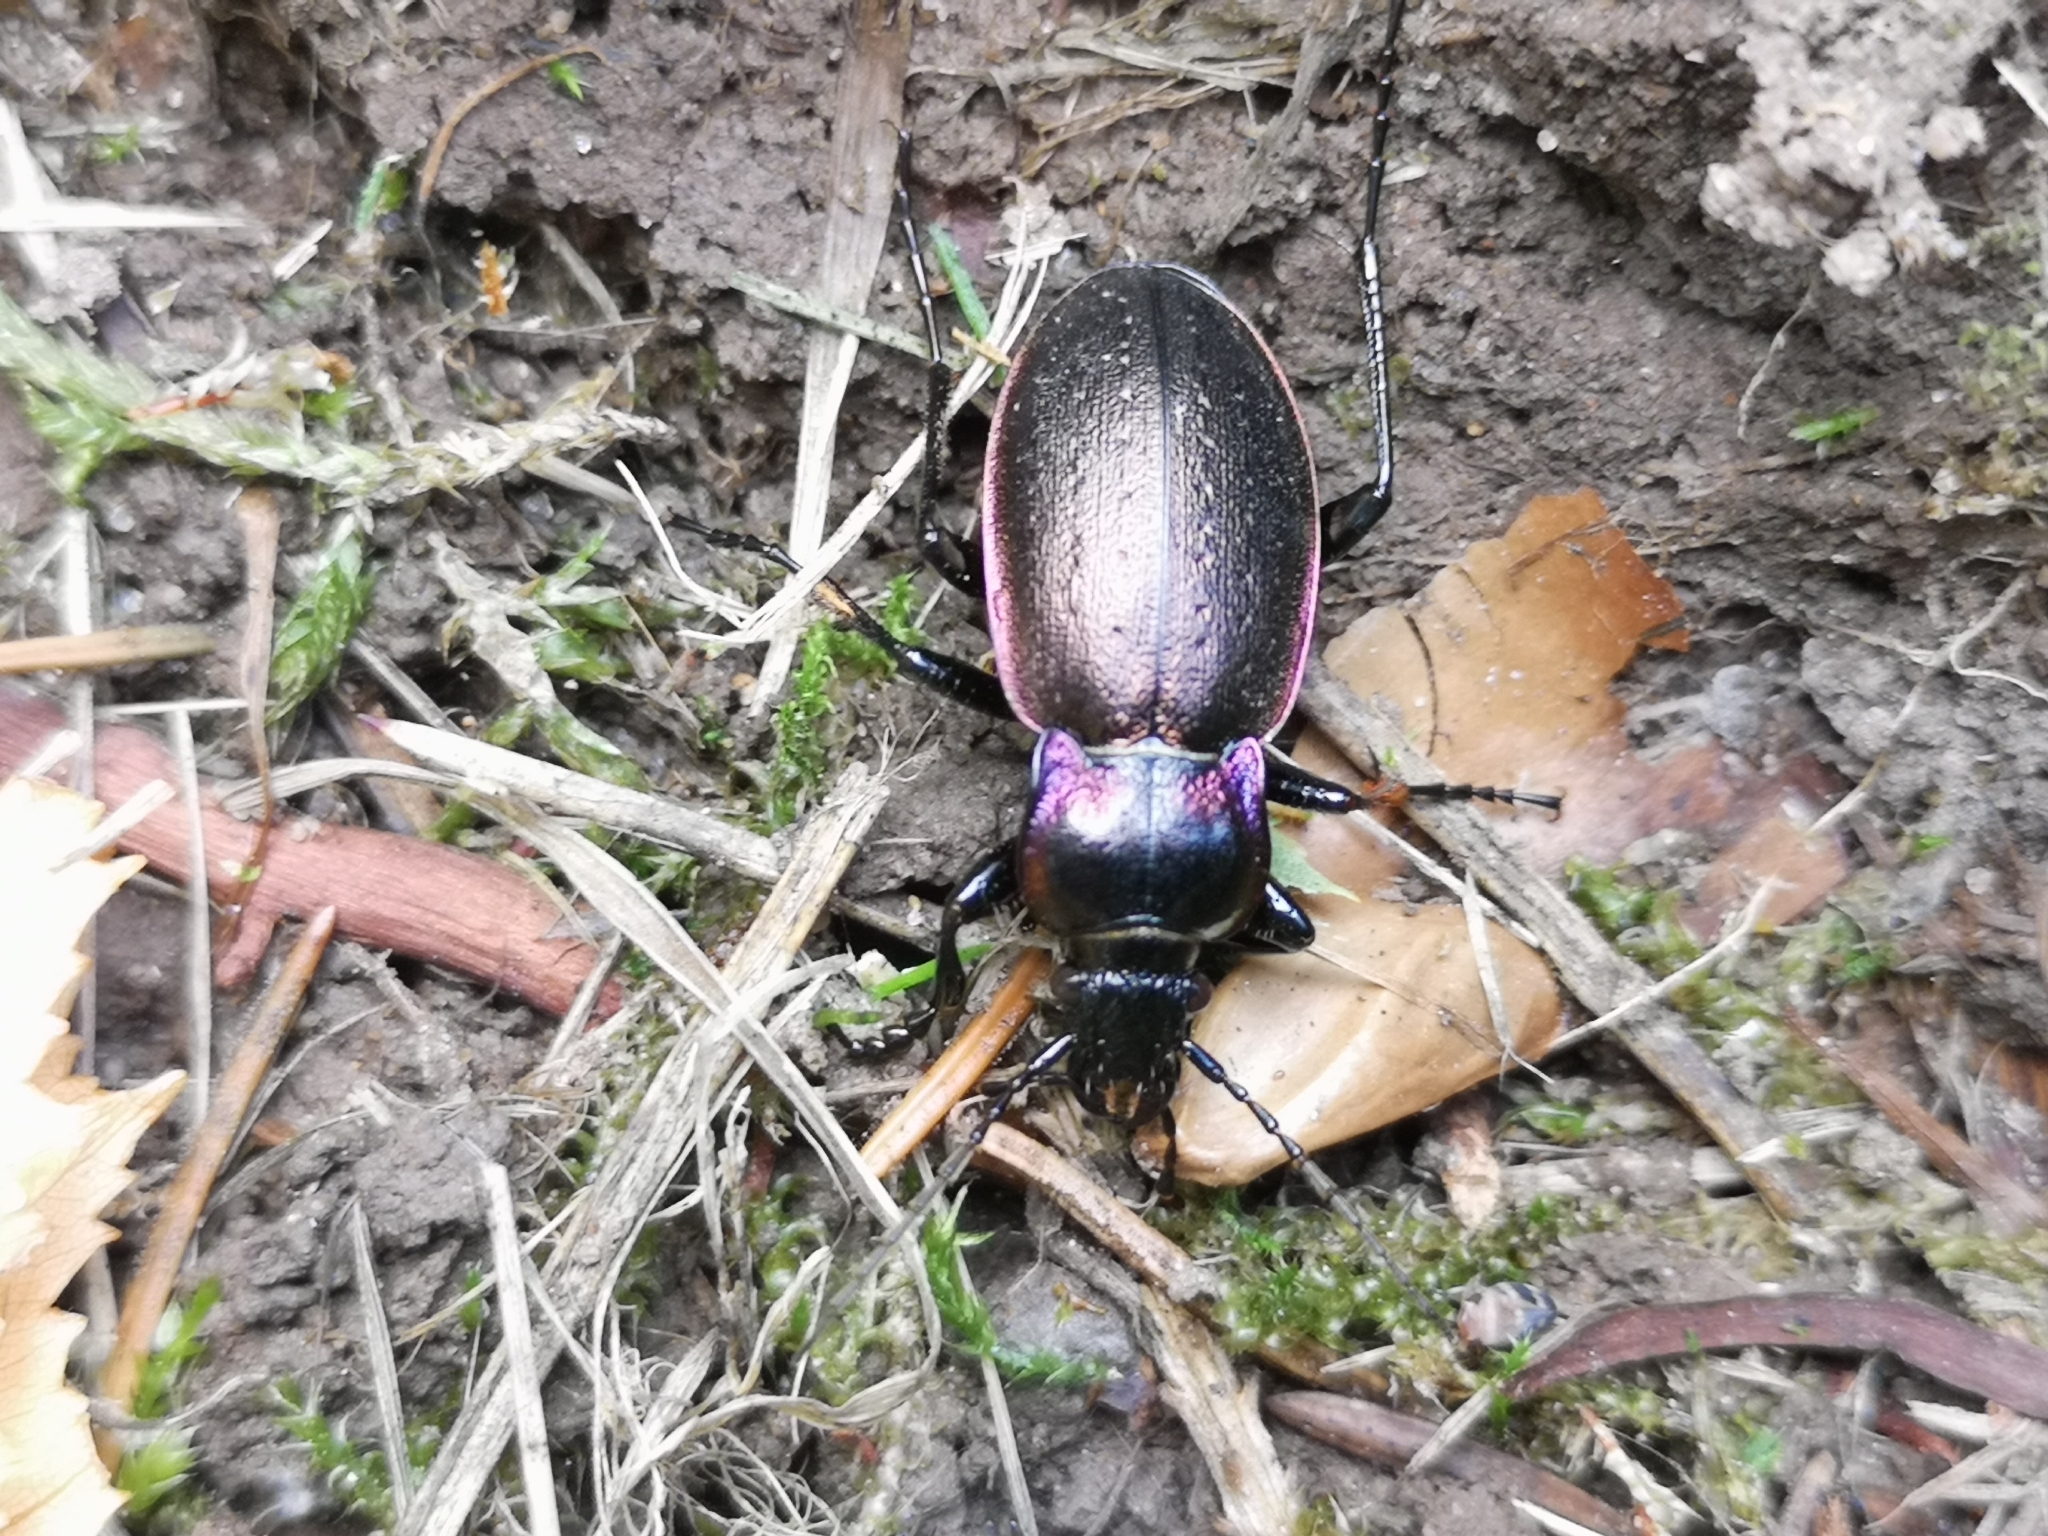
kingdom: Animalia
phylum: Arthropoda
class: Insecta
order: Coleoptera
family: Carabidae
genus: Carabus
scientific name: Carabus nemoralis
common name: European ground beetle
